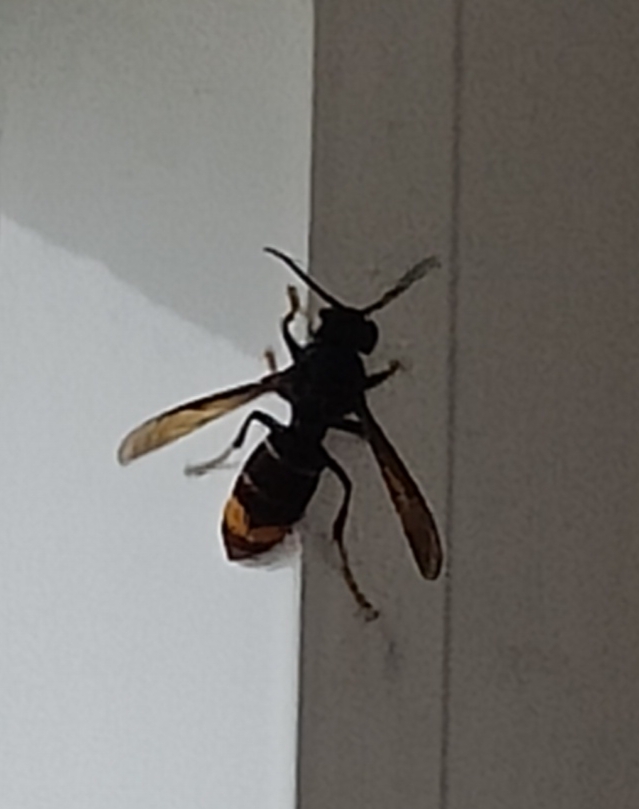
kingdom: Animalia
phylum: Arthropoda
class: Insecta
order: Hymenoptera
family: Vespidae
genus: Vespa
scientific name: Vespa velutina
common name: Asian hornet
